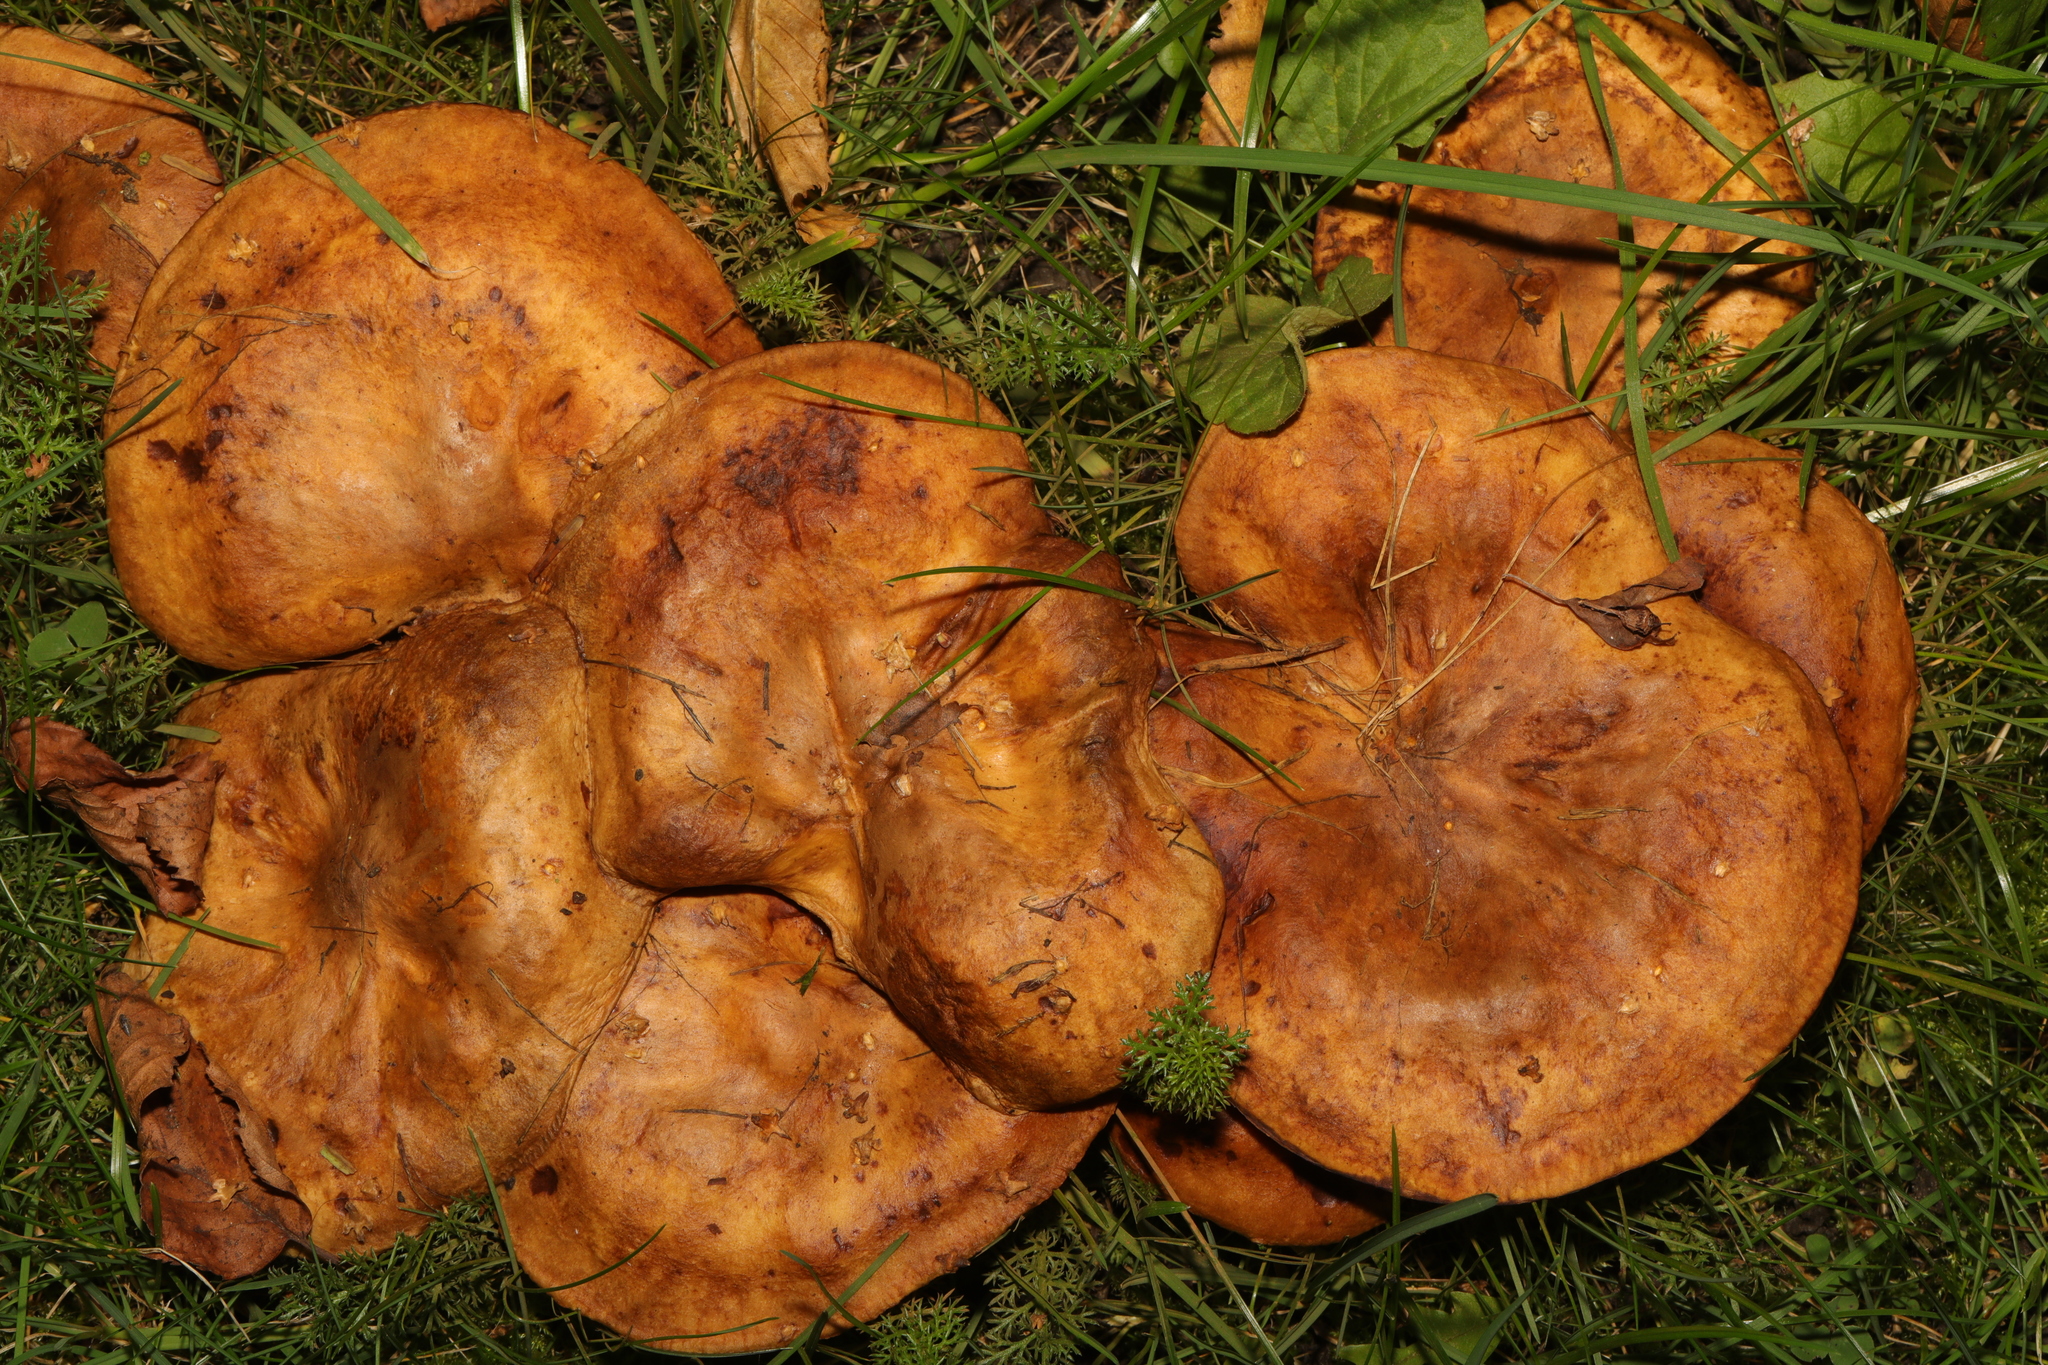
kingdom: Fungi
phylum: Basidiomycota
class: Agaricomycetes
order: Russulales
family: Russulaceae
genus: Lactarius
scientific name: Lactarius pubescens
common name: Bearded milkcap
